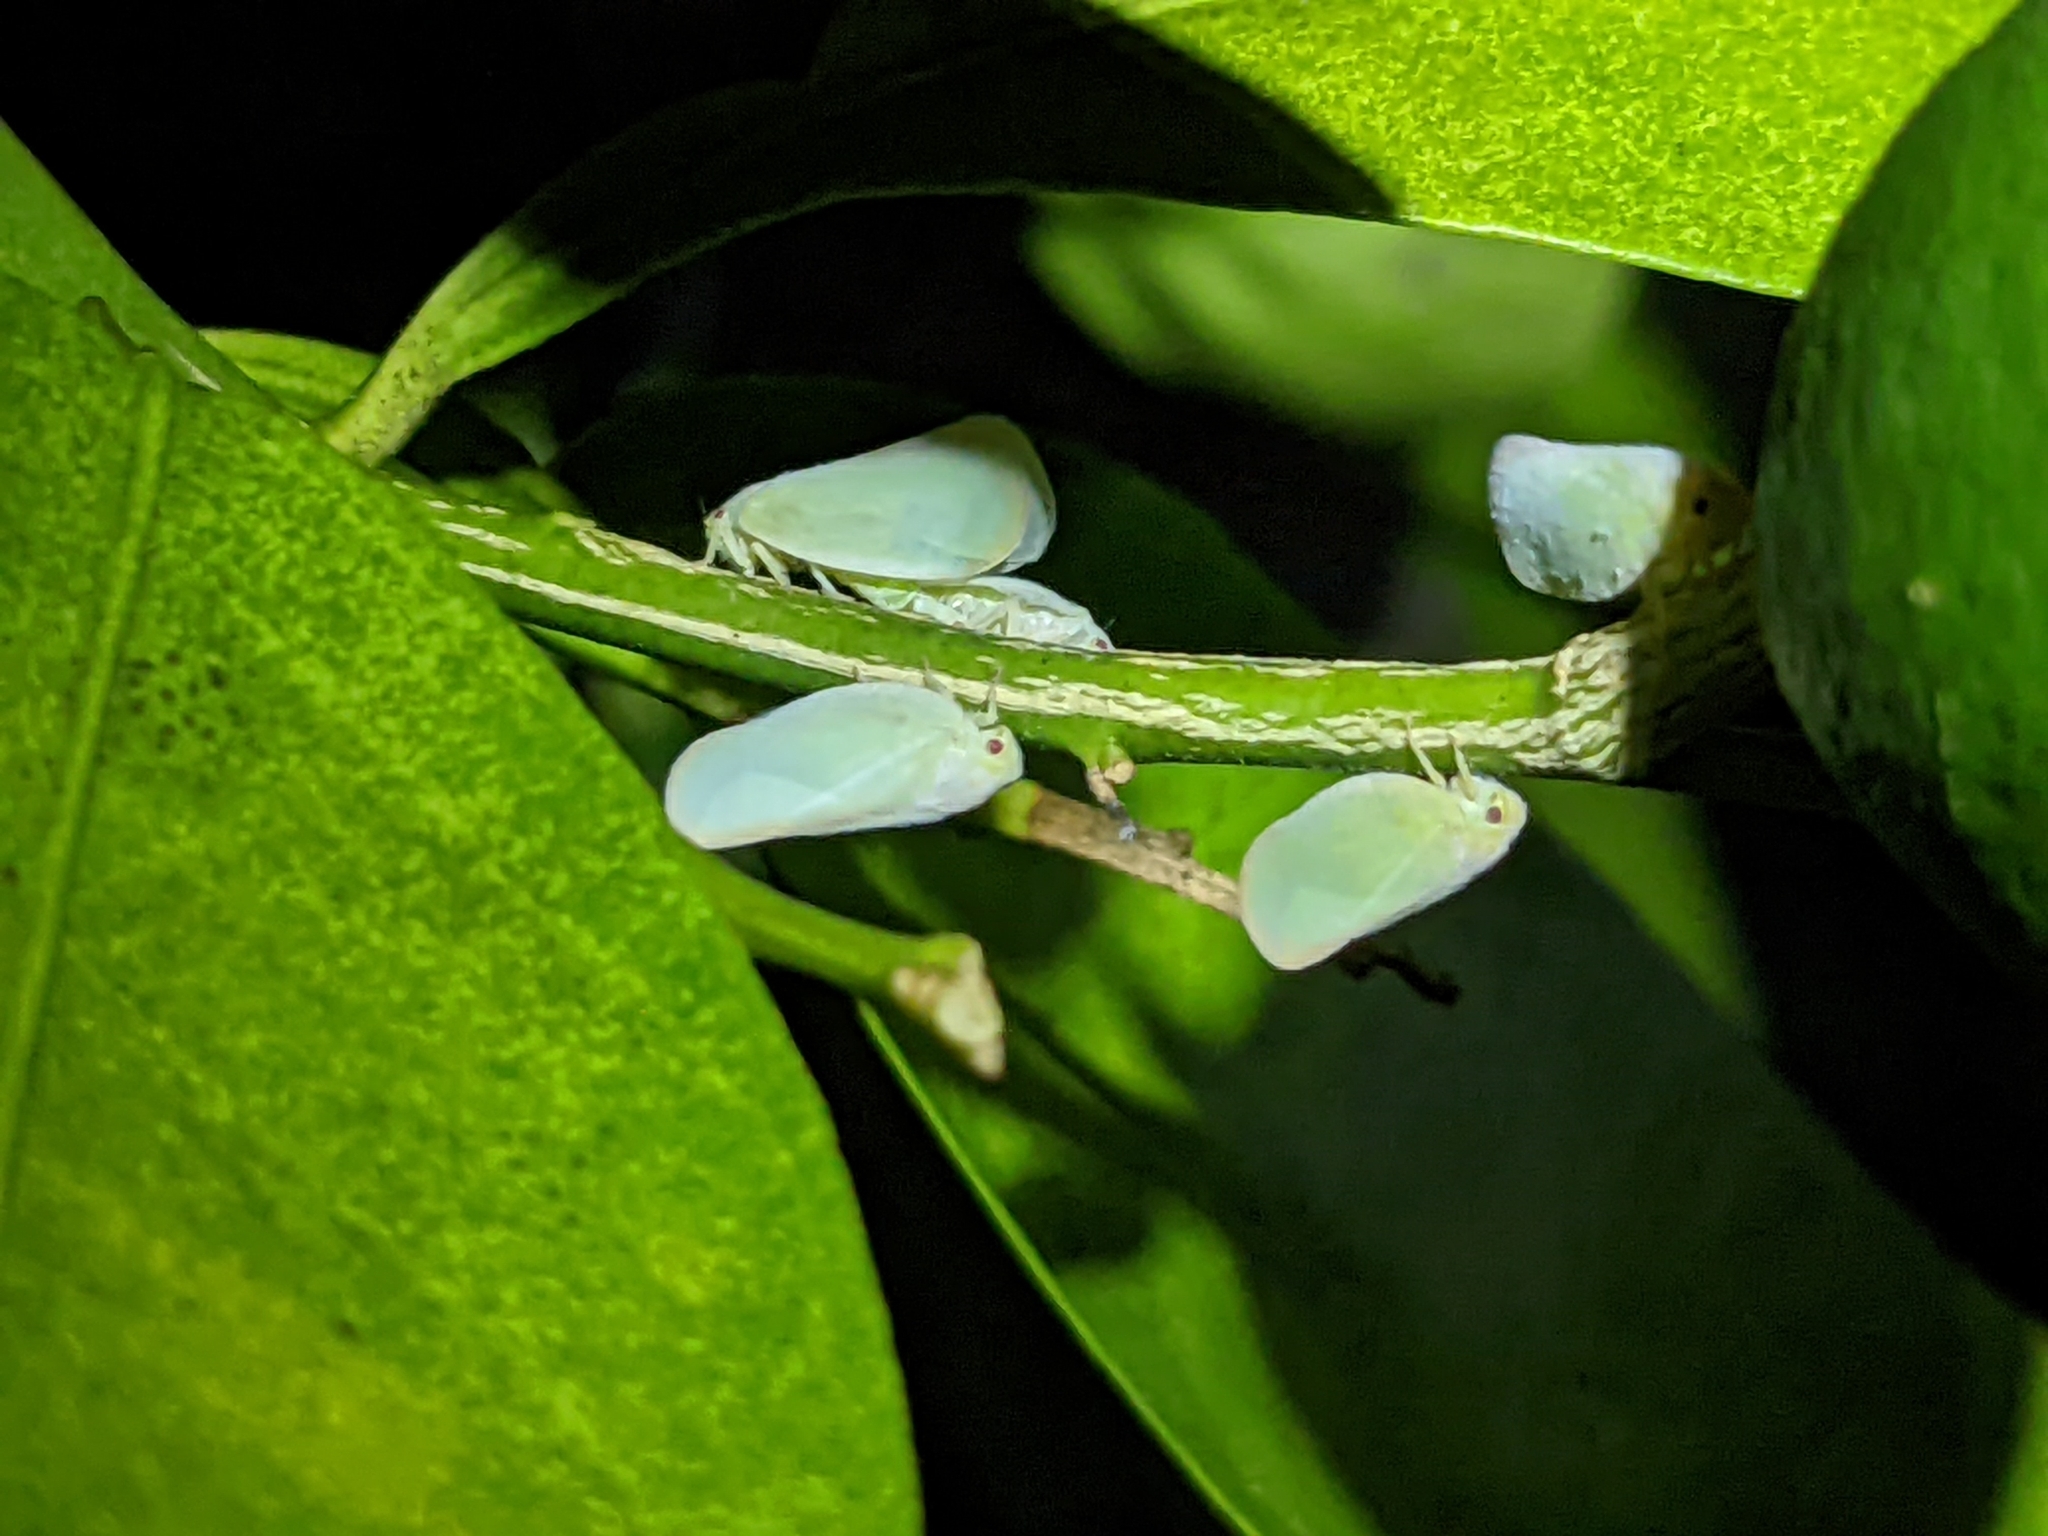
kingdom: Animalia
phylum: Arthropoda
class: Insecta
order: Hemiptera
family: Flatidae
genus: Ormenoides
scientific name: Ormenoides venusta
